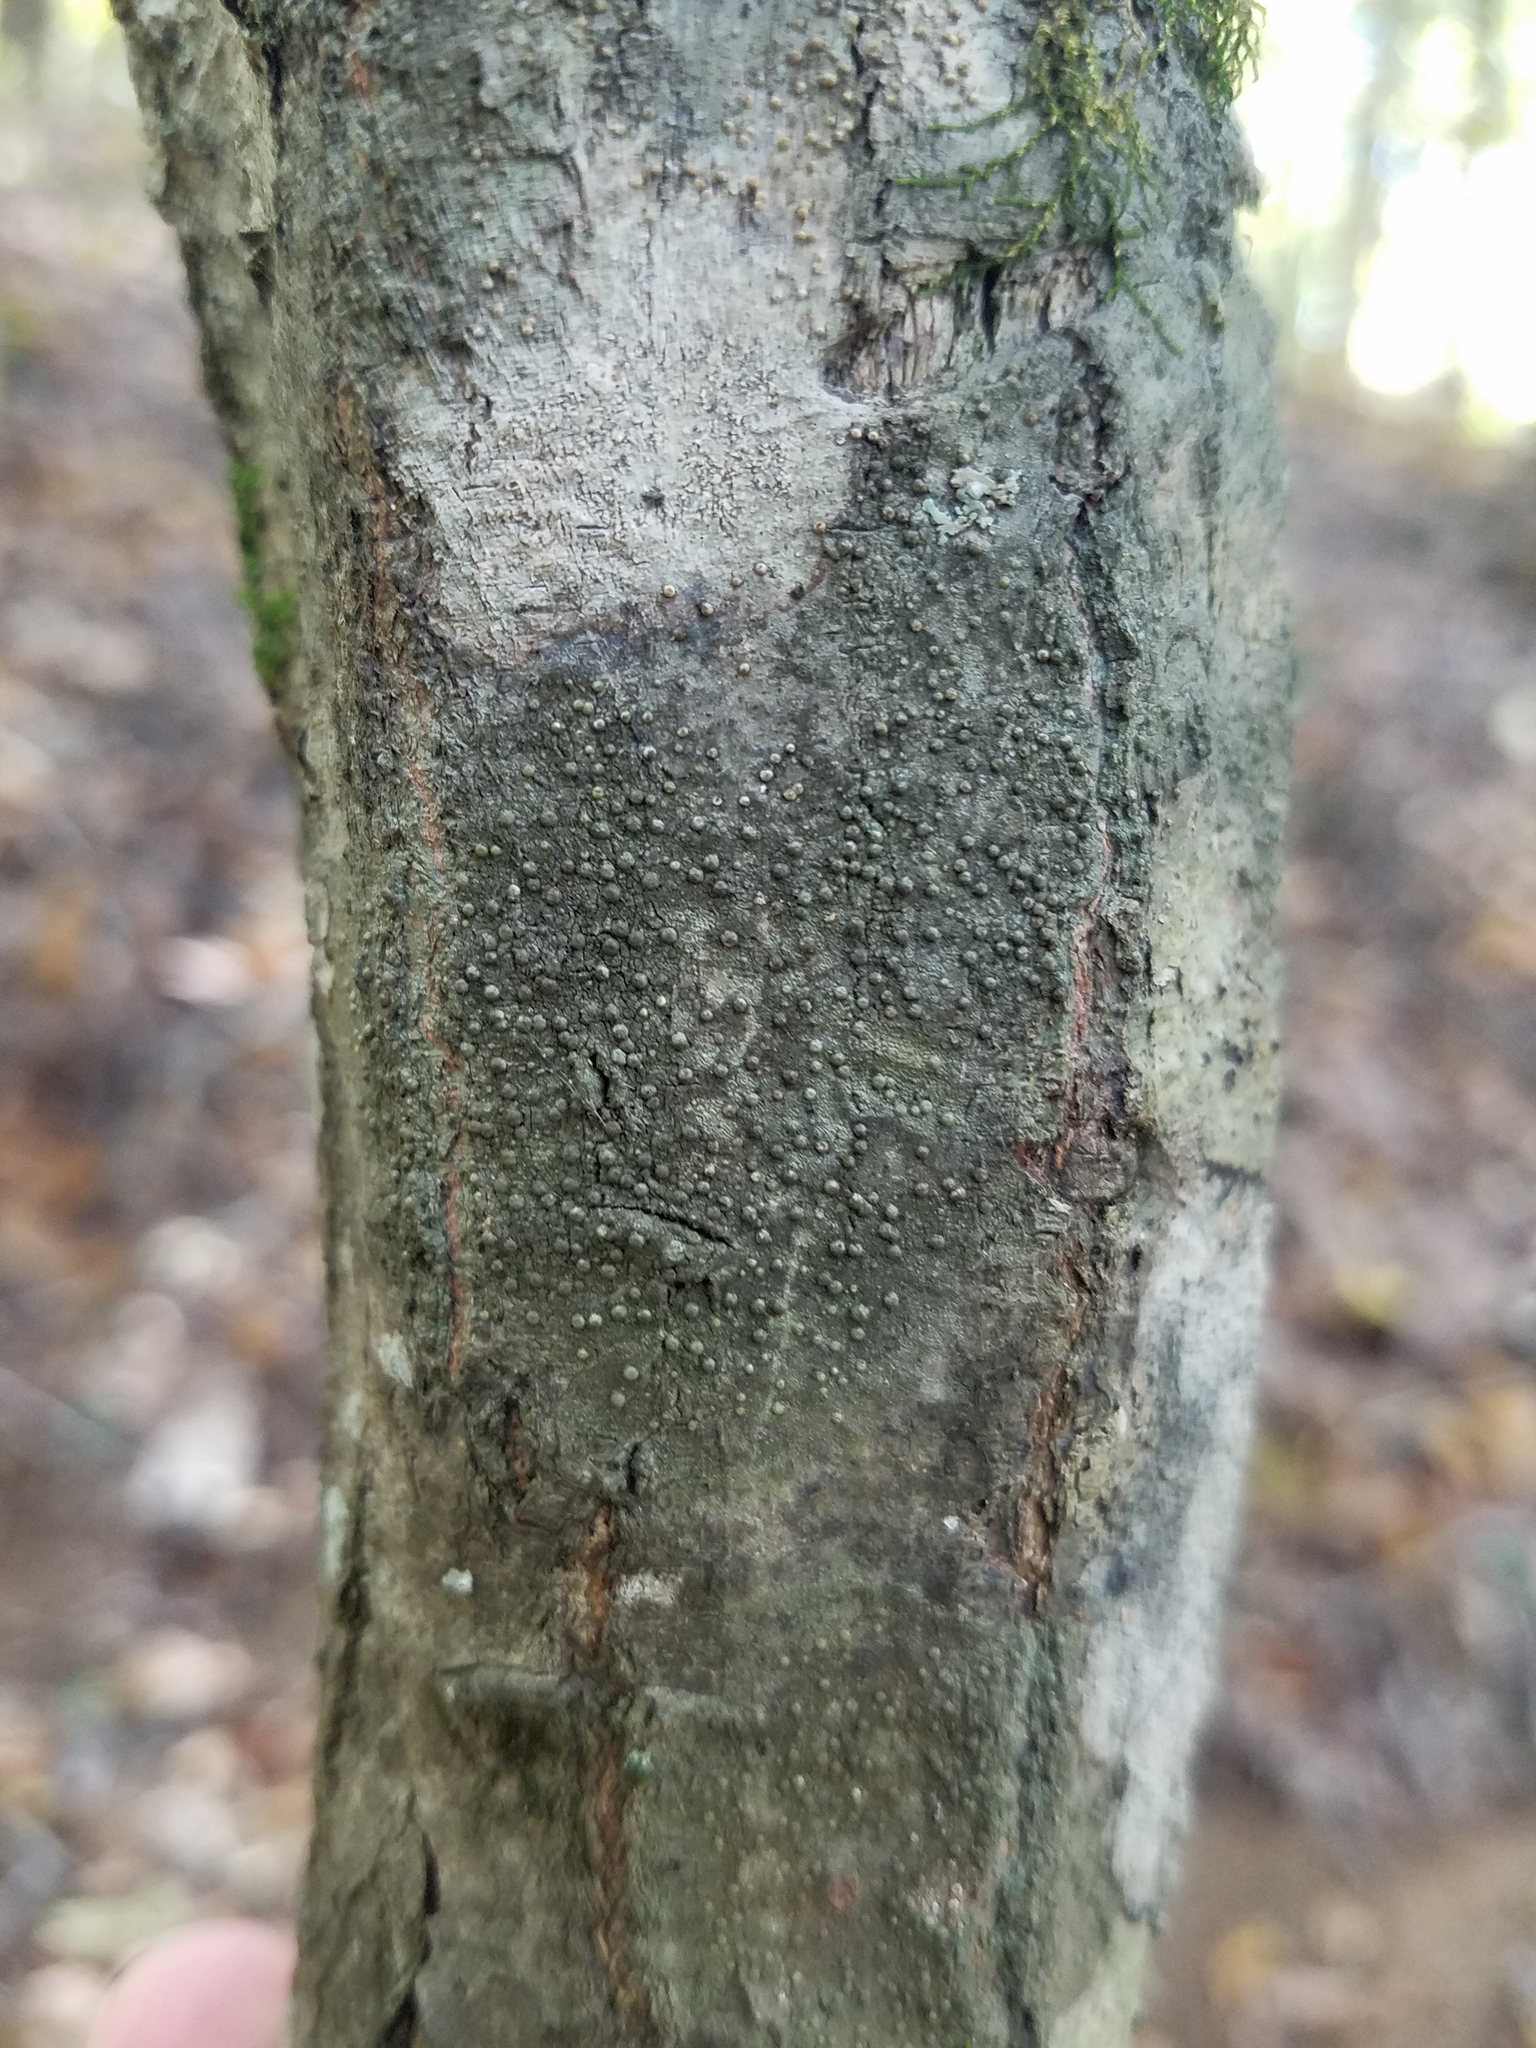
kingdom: Fungi
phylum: Ascomycota
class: Lecanoromycetes
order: Pertusariales
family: Pertusariaceae
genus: Porina
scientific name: Porina heterospora
